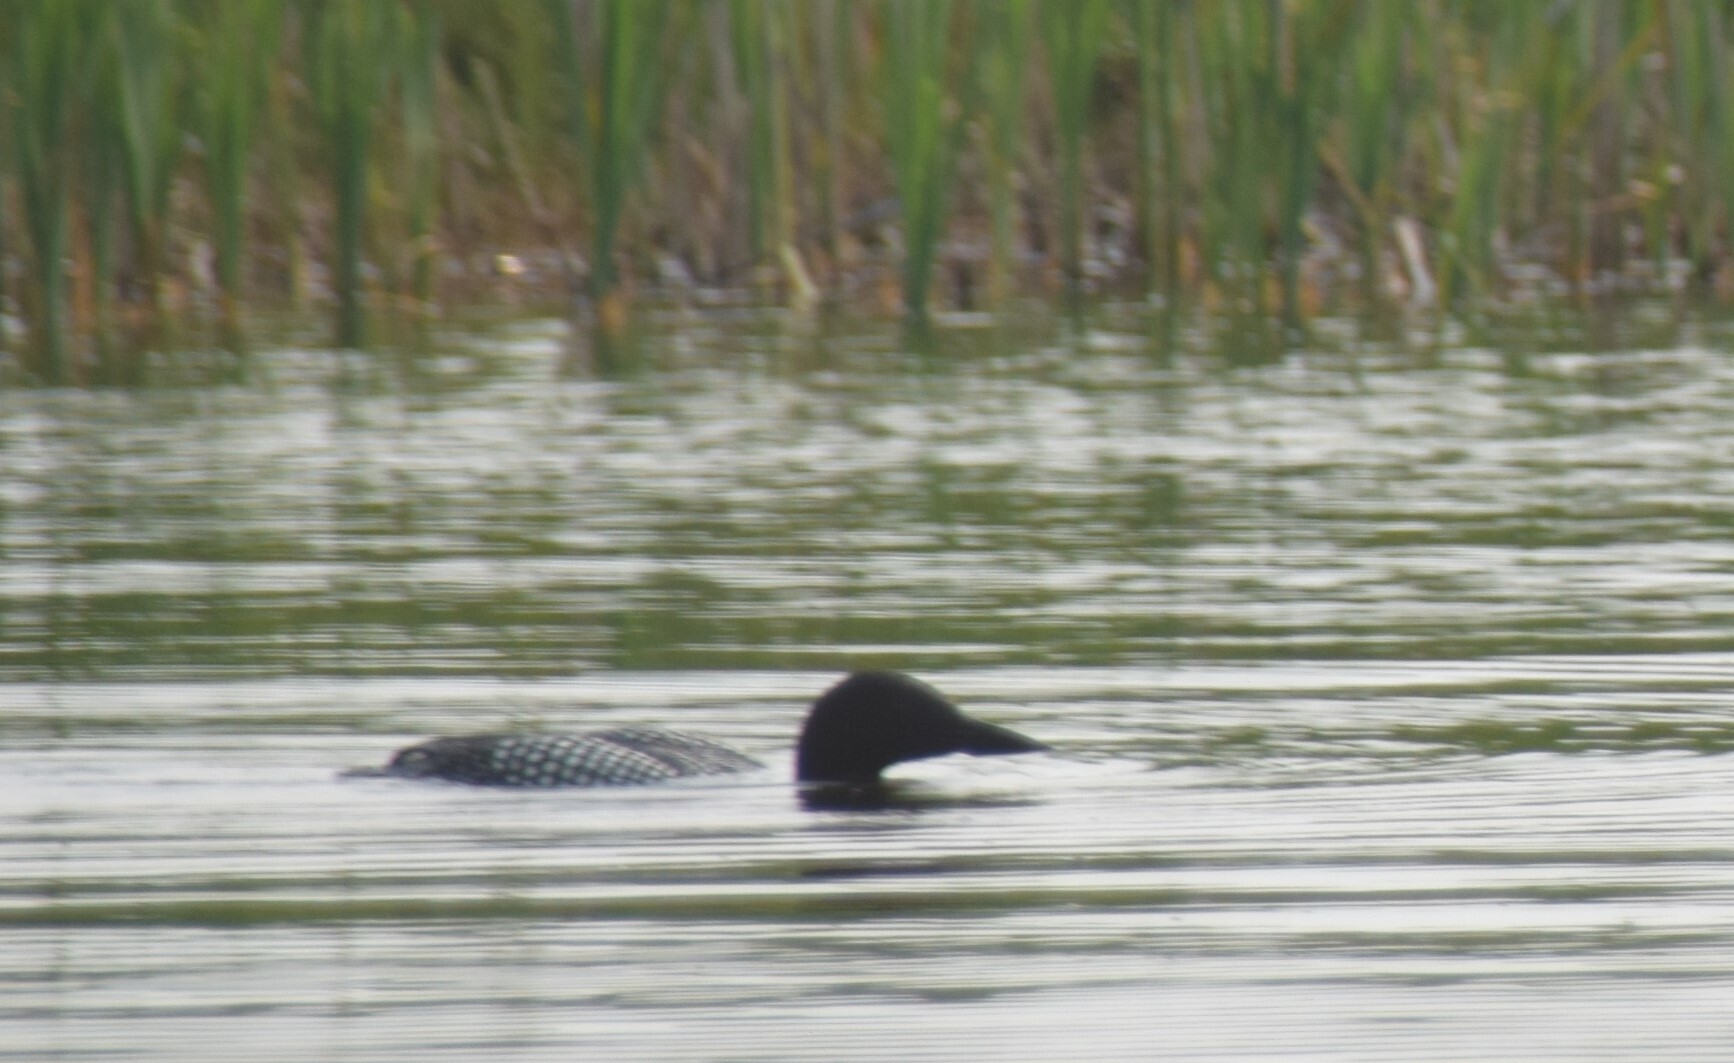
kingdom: Animalia
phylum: Chordata
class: Aves
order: Gaviiformes
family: Gaviidae
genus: Gavia
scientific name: Gavia immer
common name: Common loon
